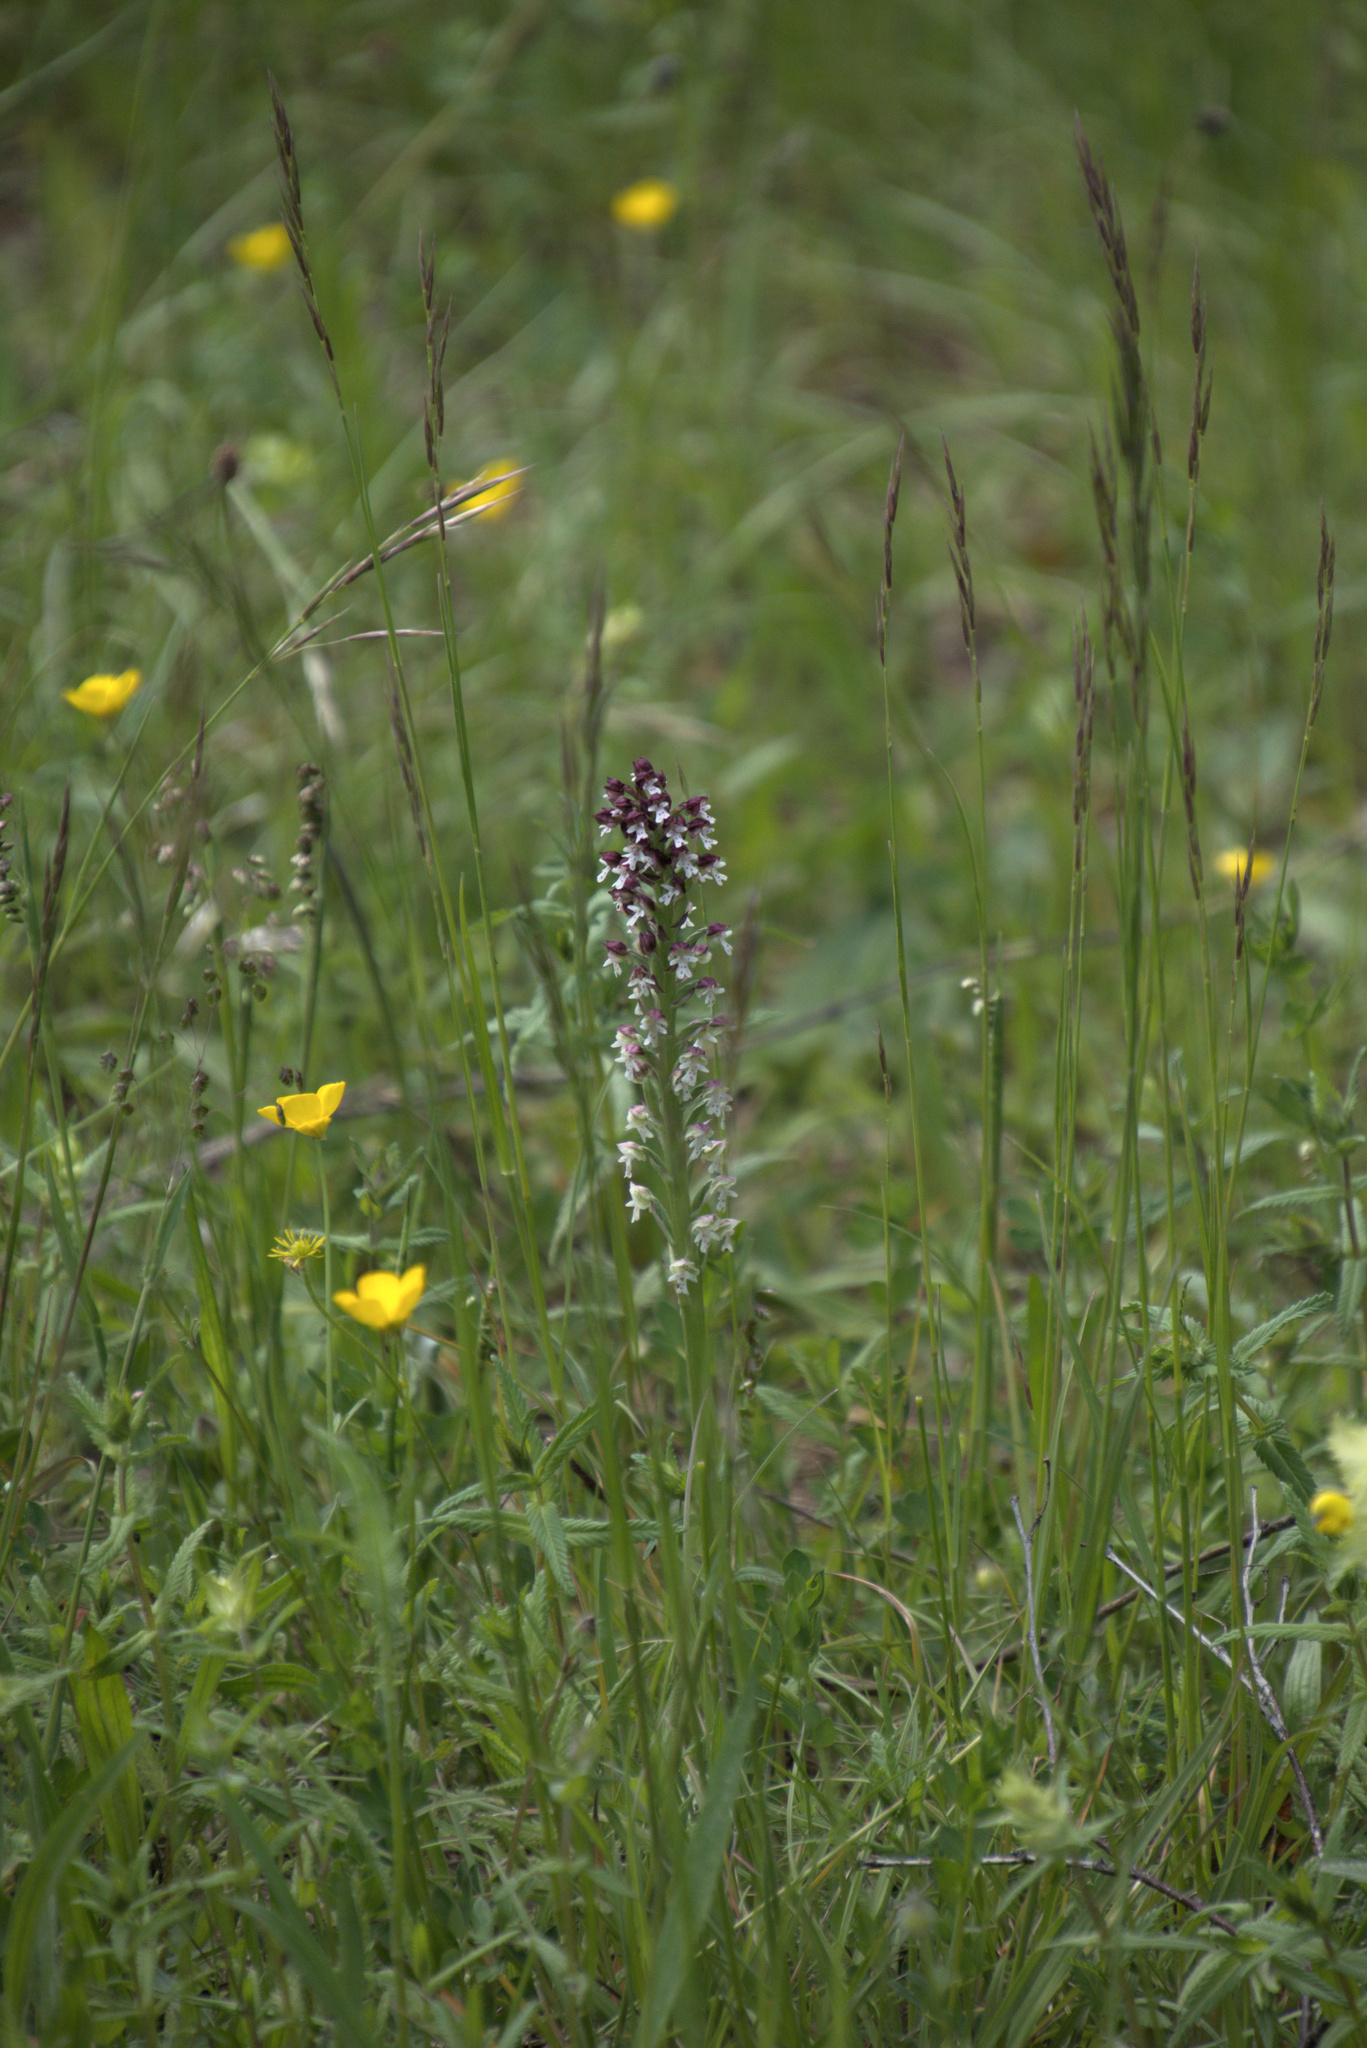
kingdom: Plantae
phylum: Tracheophyta
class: Liliopsida
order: Asparagales
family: Orchidaceae
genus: Neotinea
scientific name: Neotinea ustulata
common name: Burnt orchid
